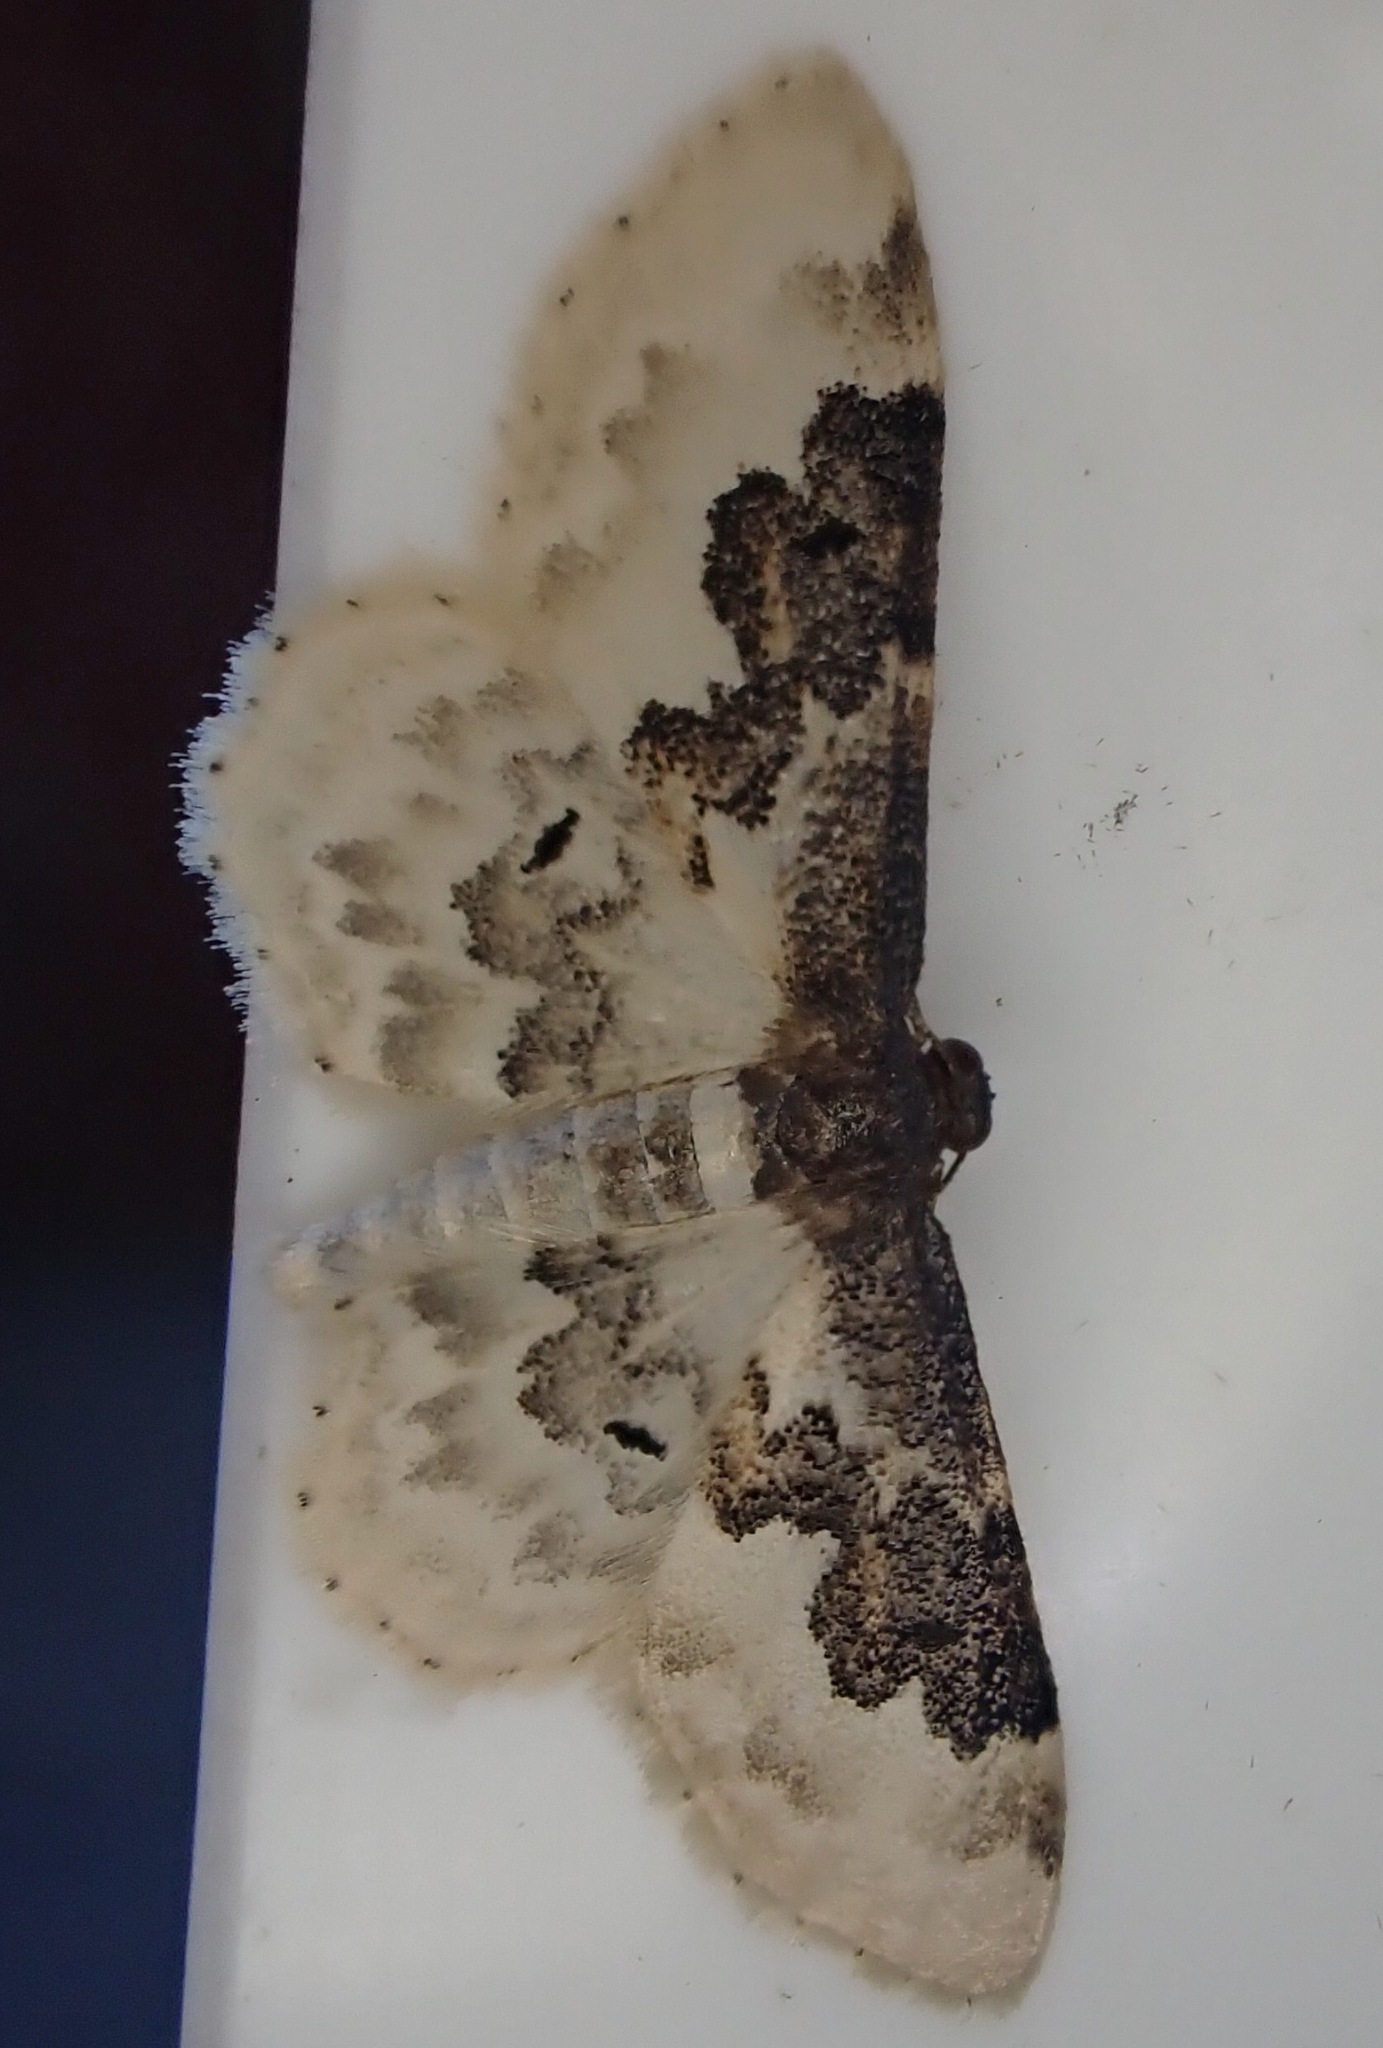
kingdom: Animalia
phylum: Arthropoda
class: Insecta
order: Lepidoptera
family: Geometridae
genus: Idaea
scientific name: Idaea rusticata
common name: Least carpet
